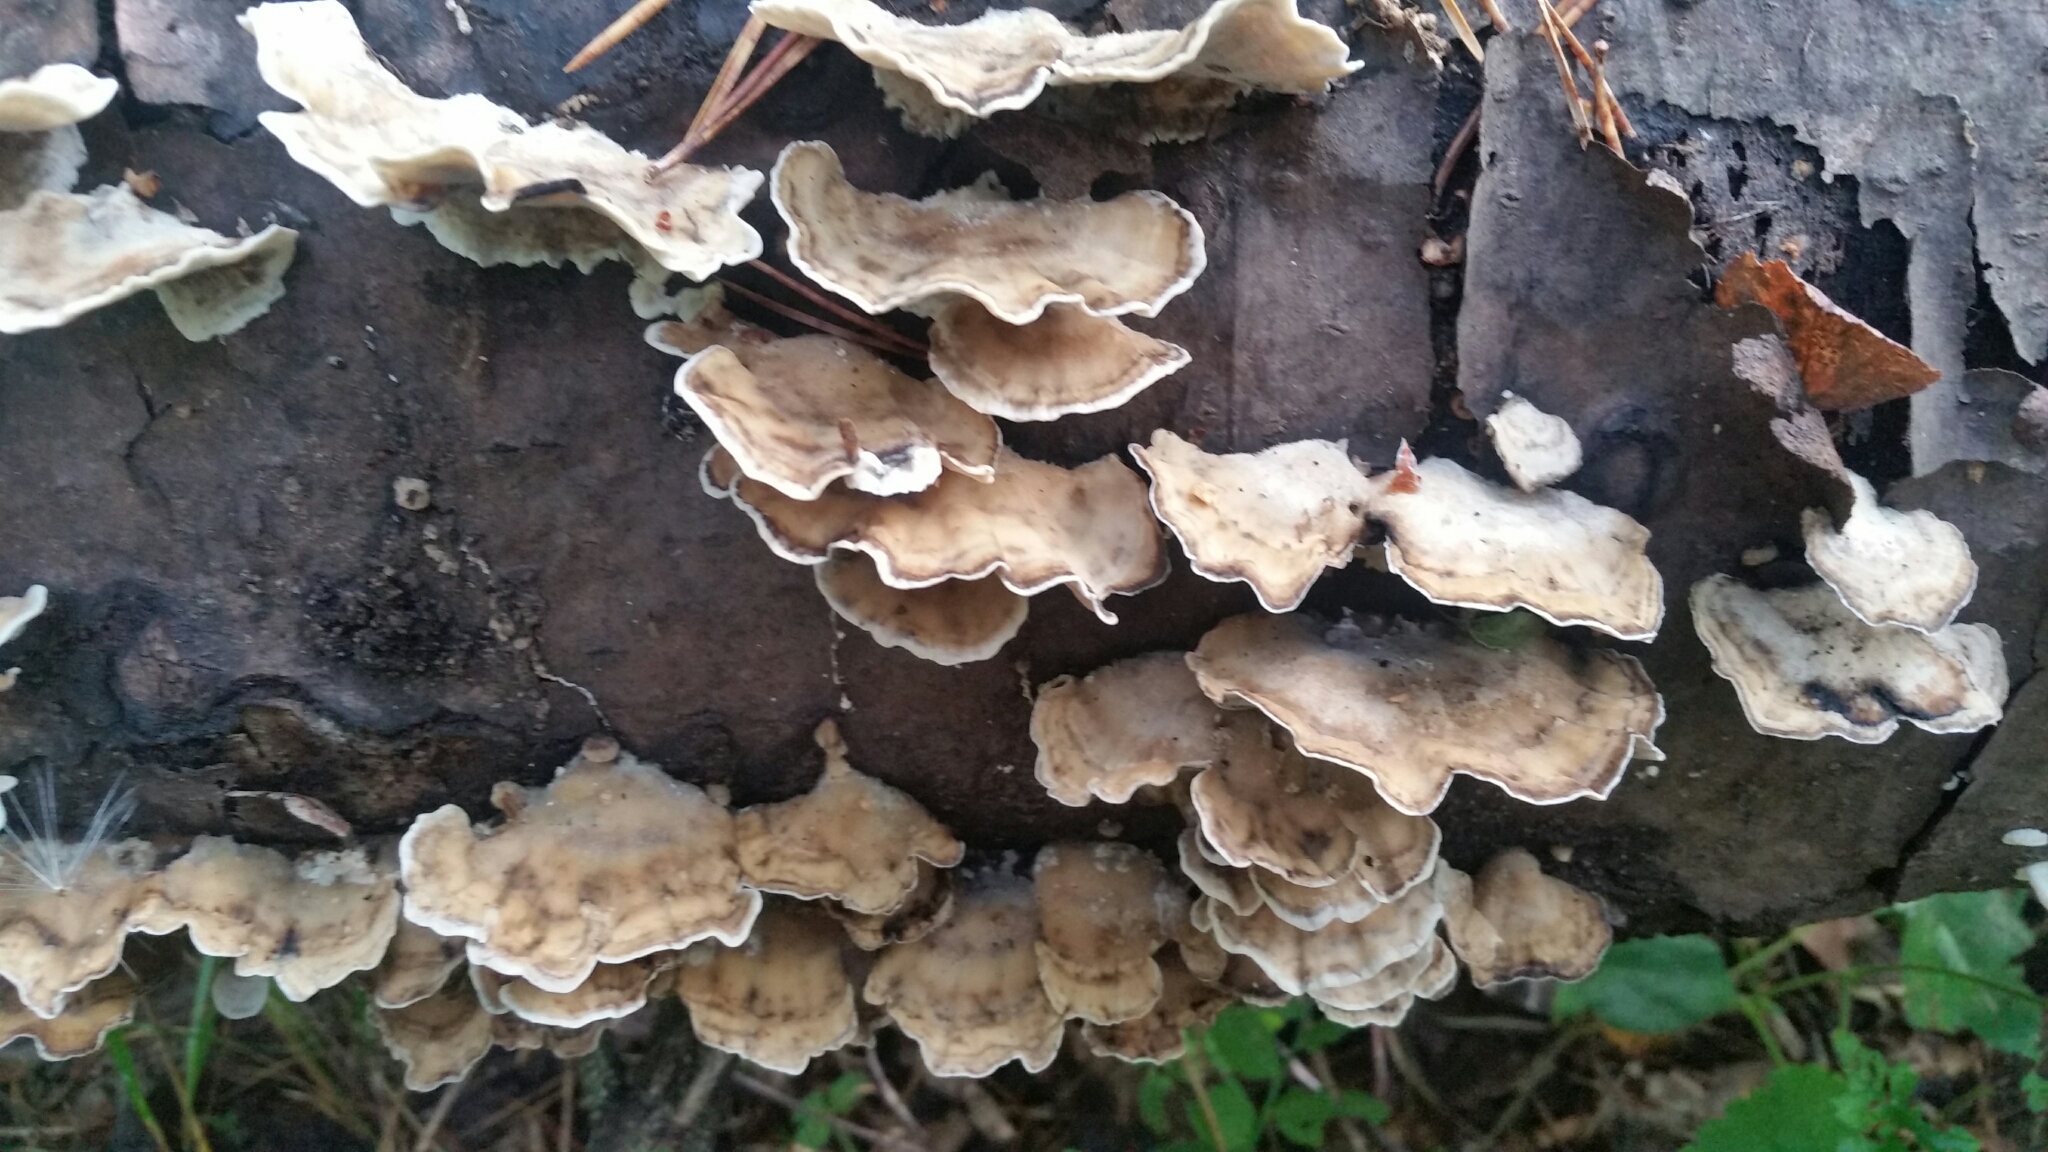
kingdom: Fungi
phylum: Basidiomycota
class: Agaricomycetes
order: Polyporales
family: Phanerochaetaceae
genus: Bjerkandera
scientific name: Bjerkandera adusta
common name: Smoky bracket
